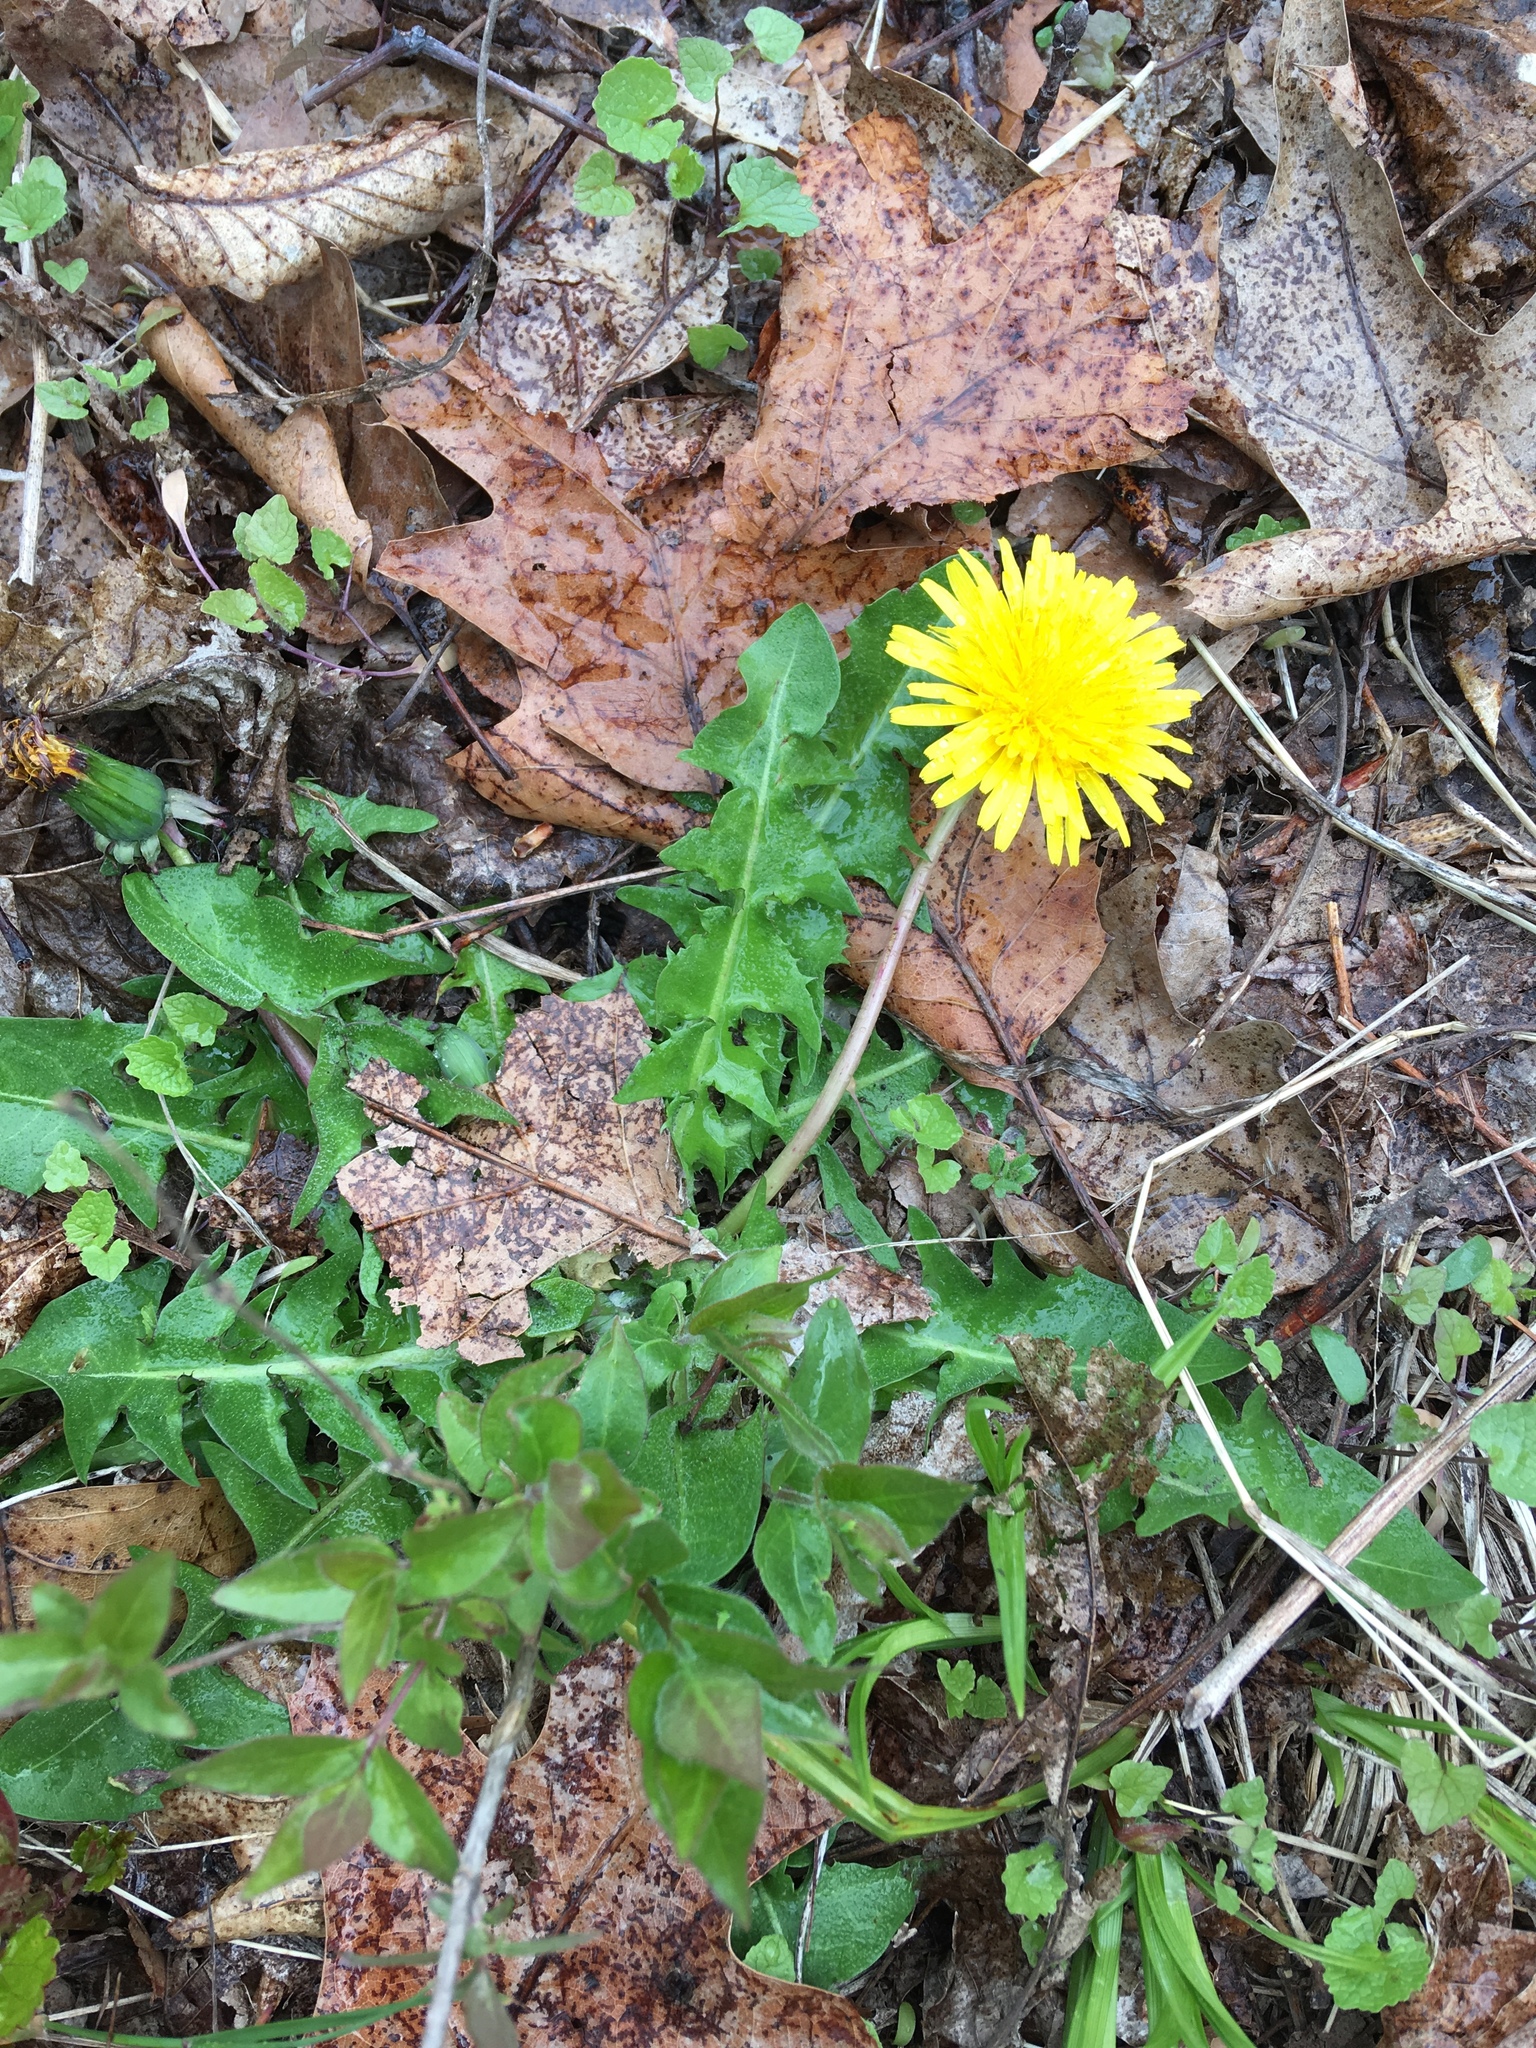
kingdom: Plantae
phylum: Tracheophyta
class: Magnoliopsida
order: Asterales
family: Asteraceae
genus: Taraxacum
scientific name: Taraxacum officinale
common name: Common dandelion
